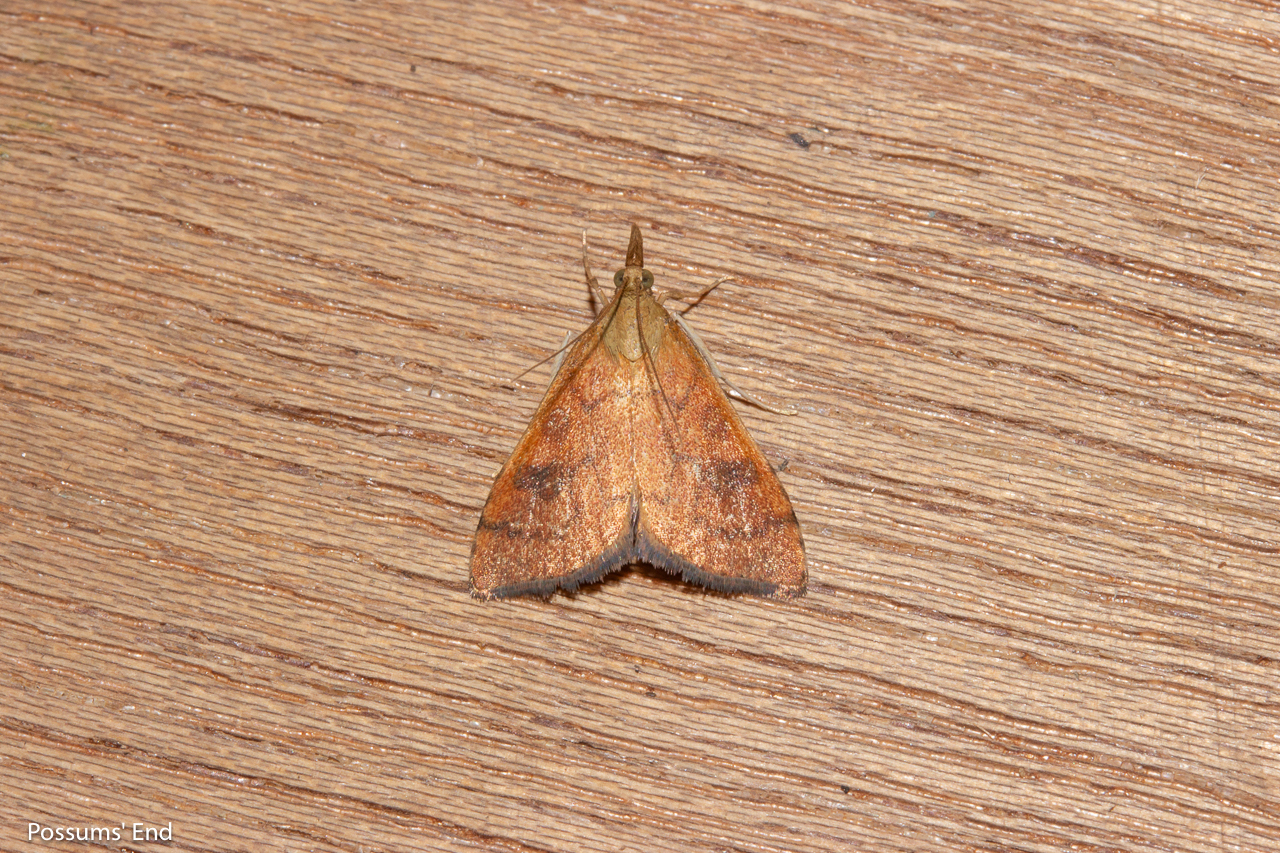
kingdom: Animalia
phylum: Arthropoda
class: Insecta
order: Lepidoptera
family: Crambidae
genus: Udea
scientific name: Udea Mnesictena flavidalis
